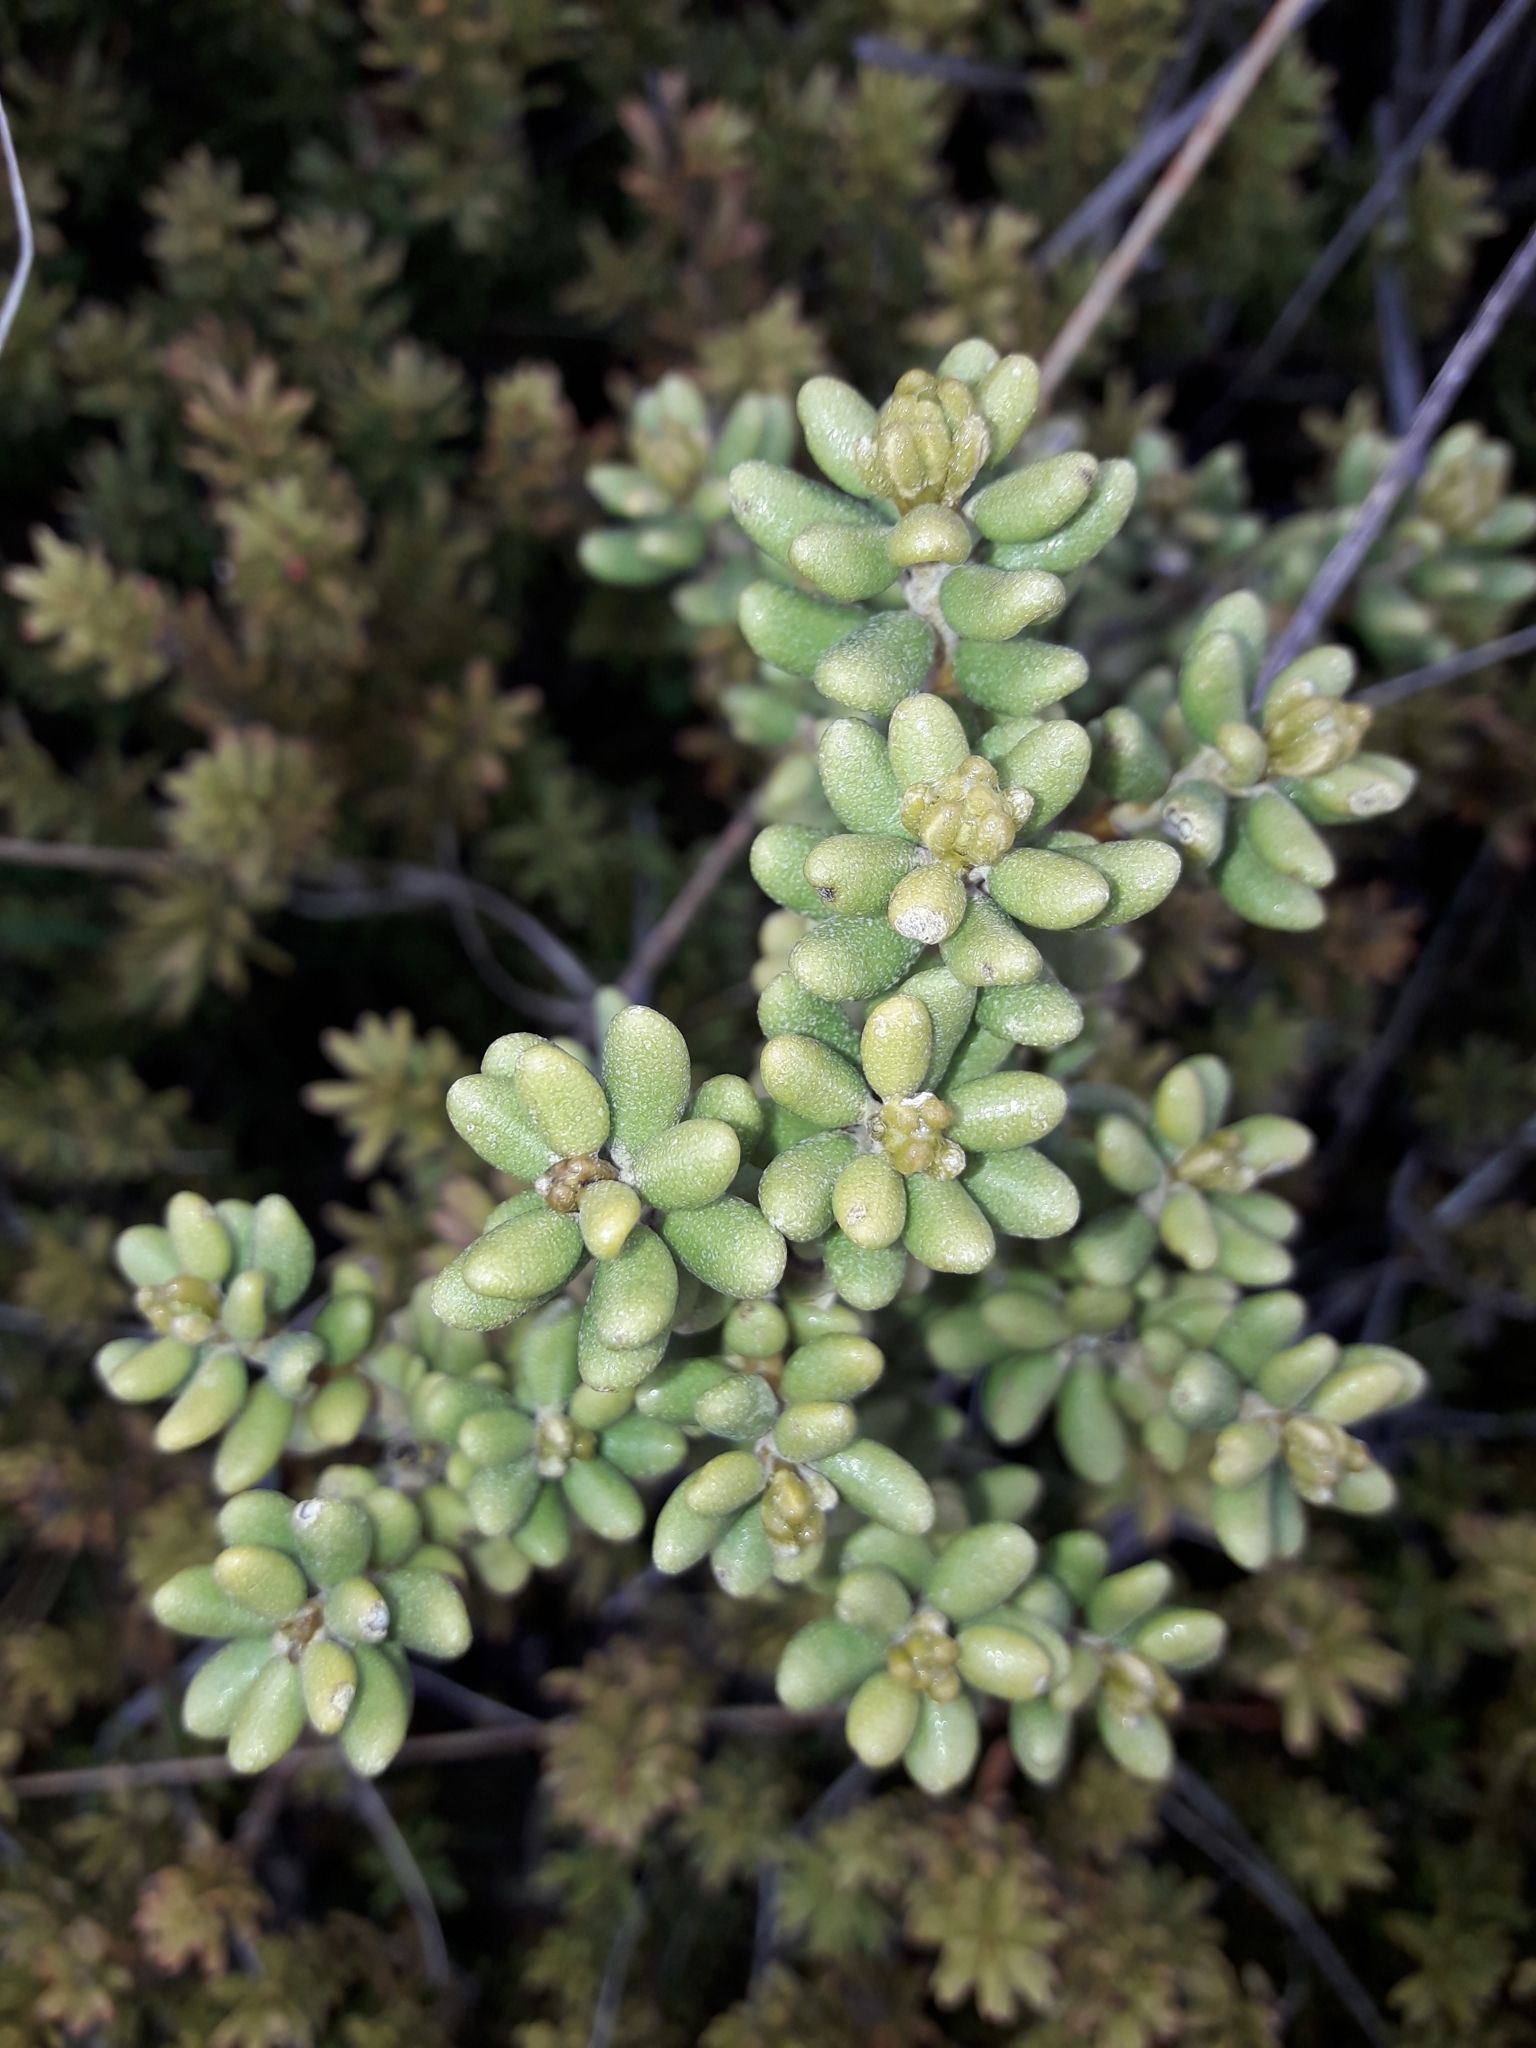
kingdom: Plantae
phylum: Tracheophyta
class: Magnoliopsida
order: Asterales
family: Asteraceae
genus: Olearia
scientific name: Olearia cymbifolia
